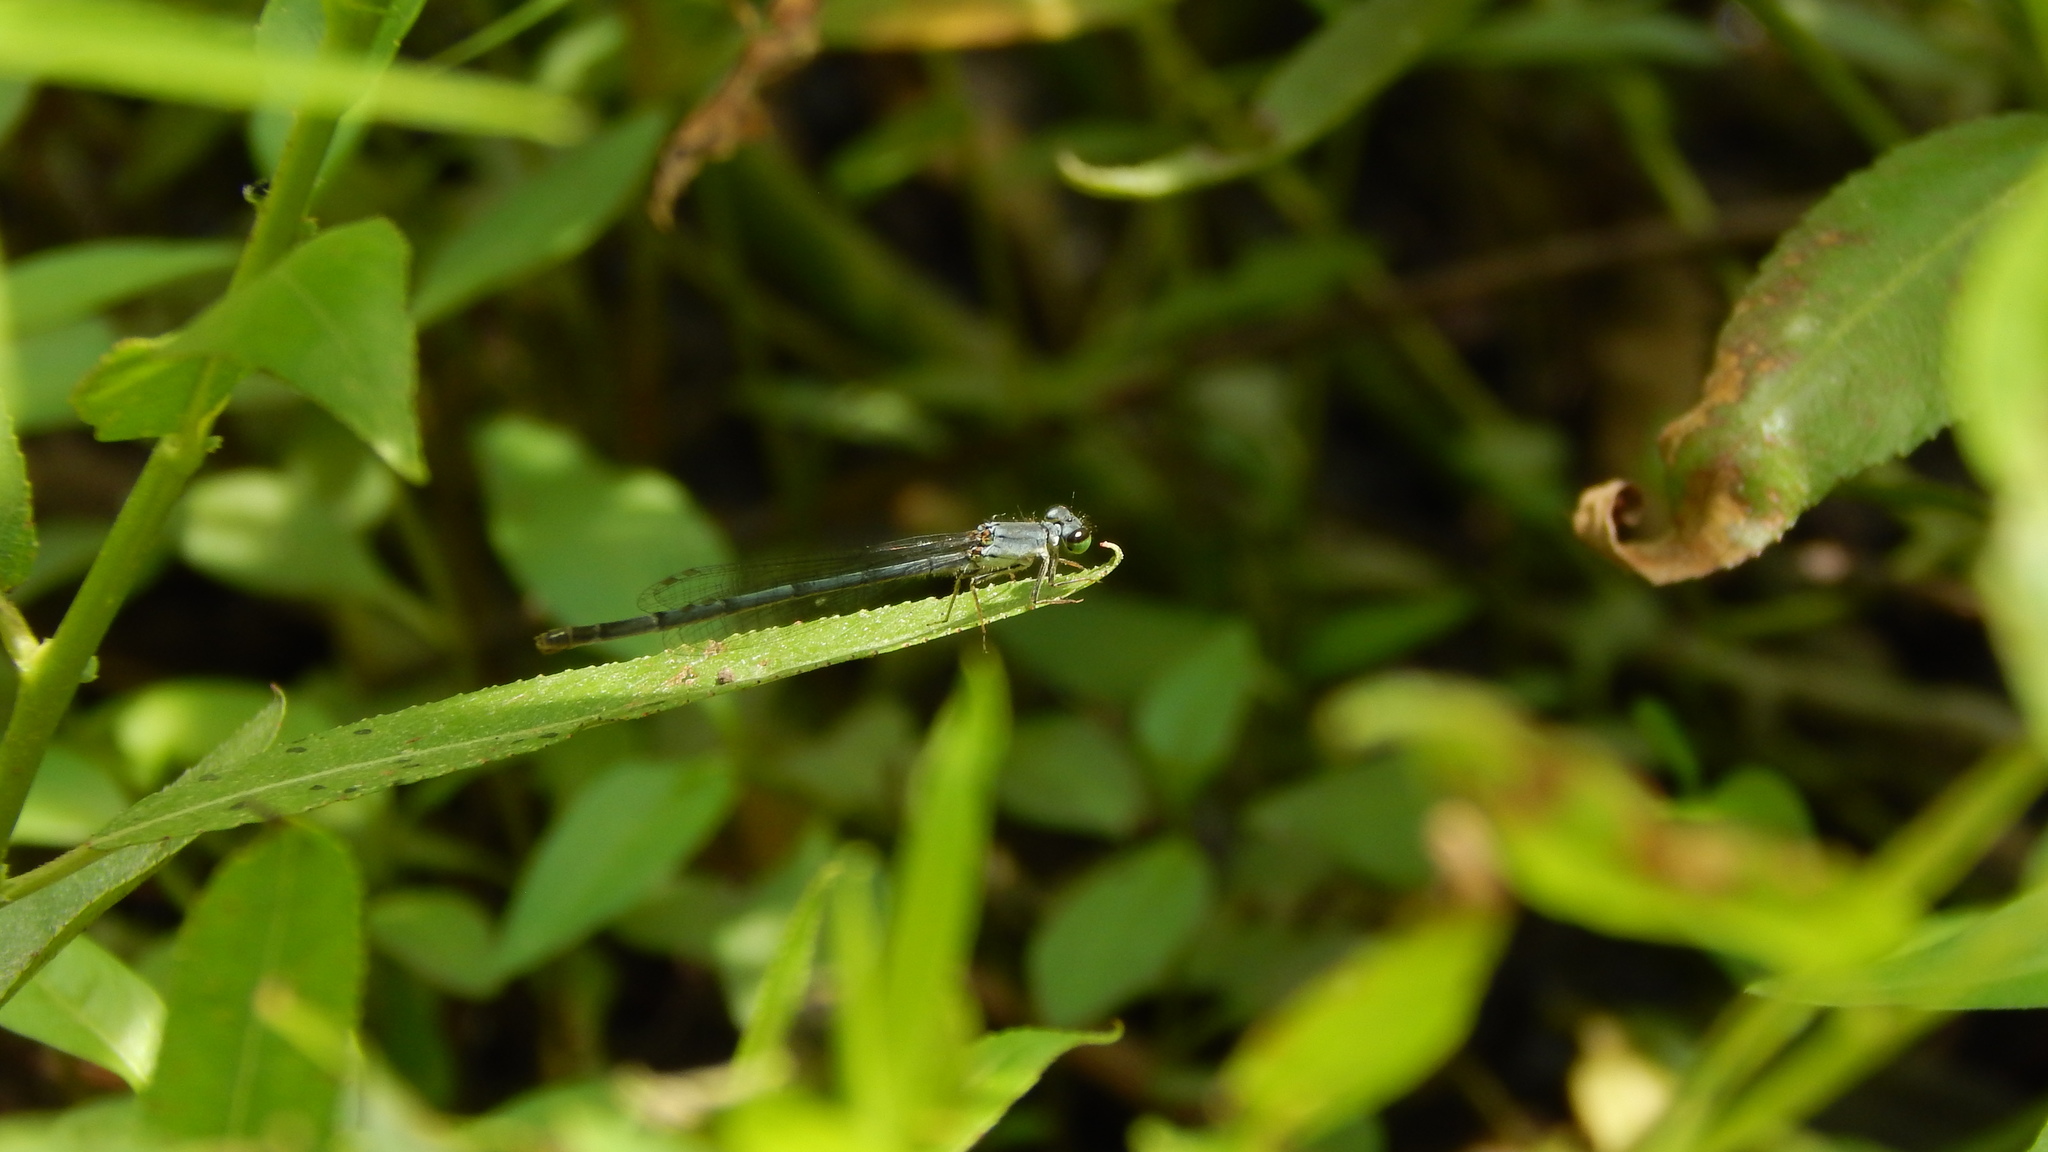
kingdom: Animalia
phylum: Arthropoda
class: Insecta
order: Odonata
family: Coenagrionidae
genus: Ischnura
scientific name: Ischnura posita
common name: Fragile forktail
